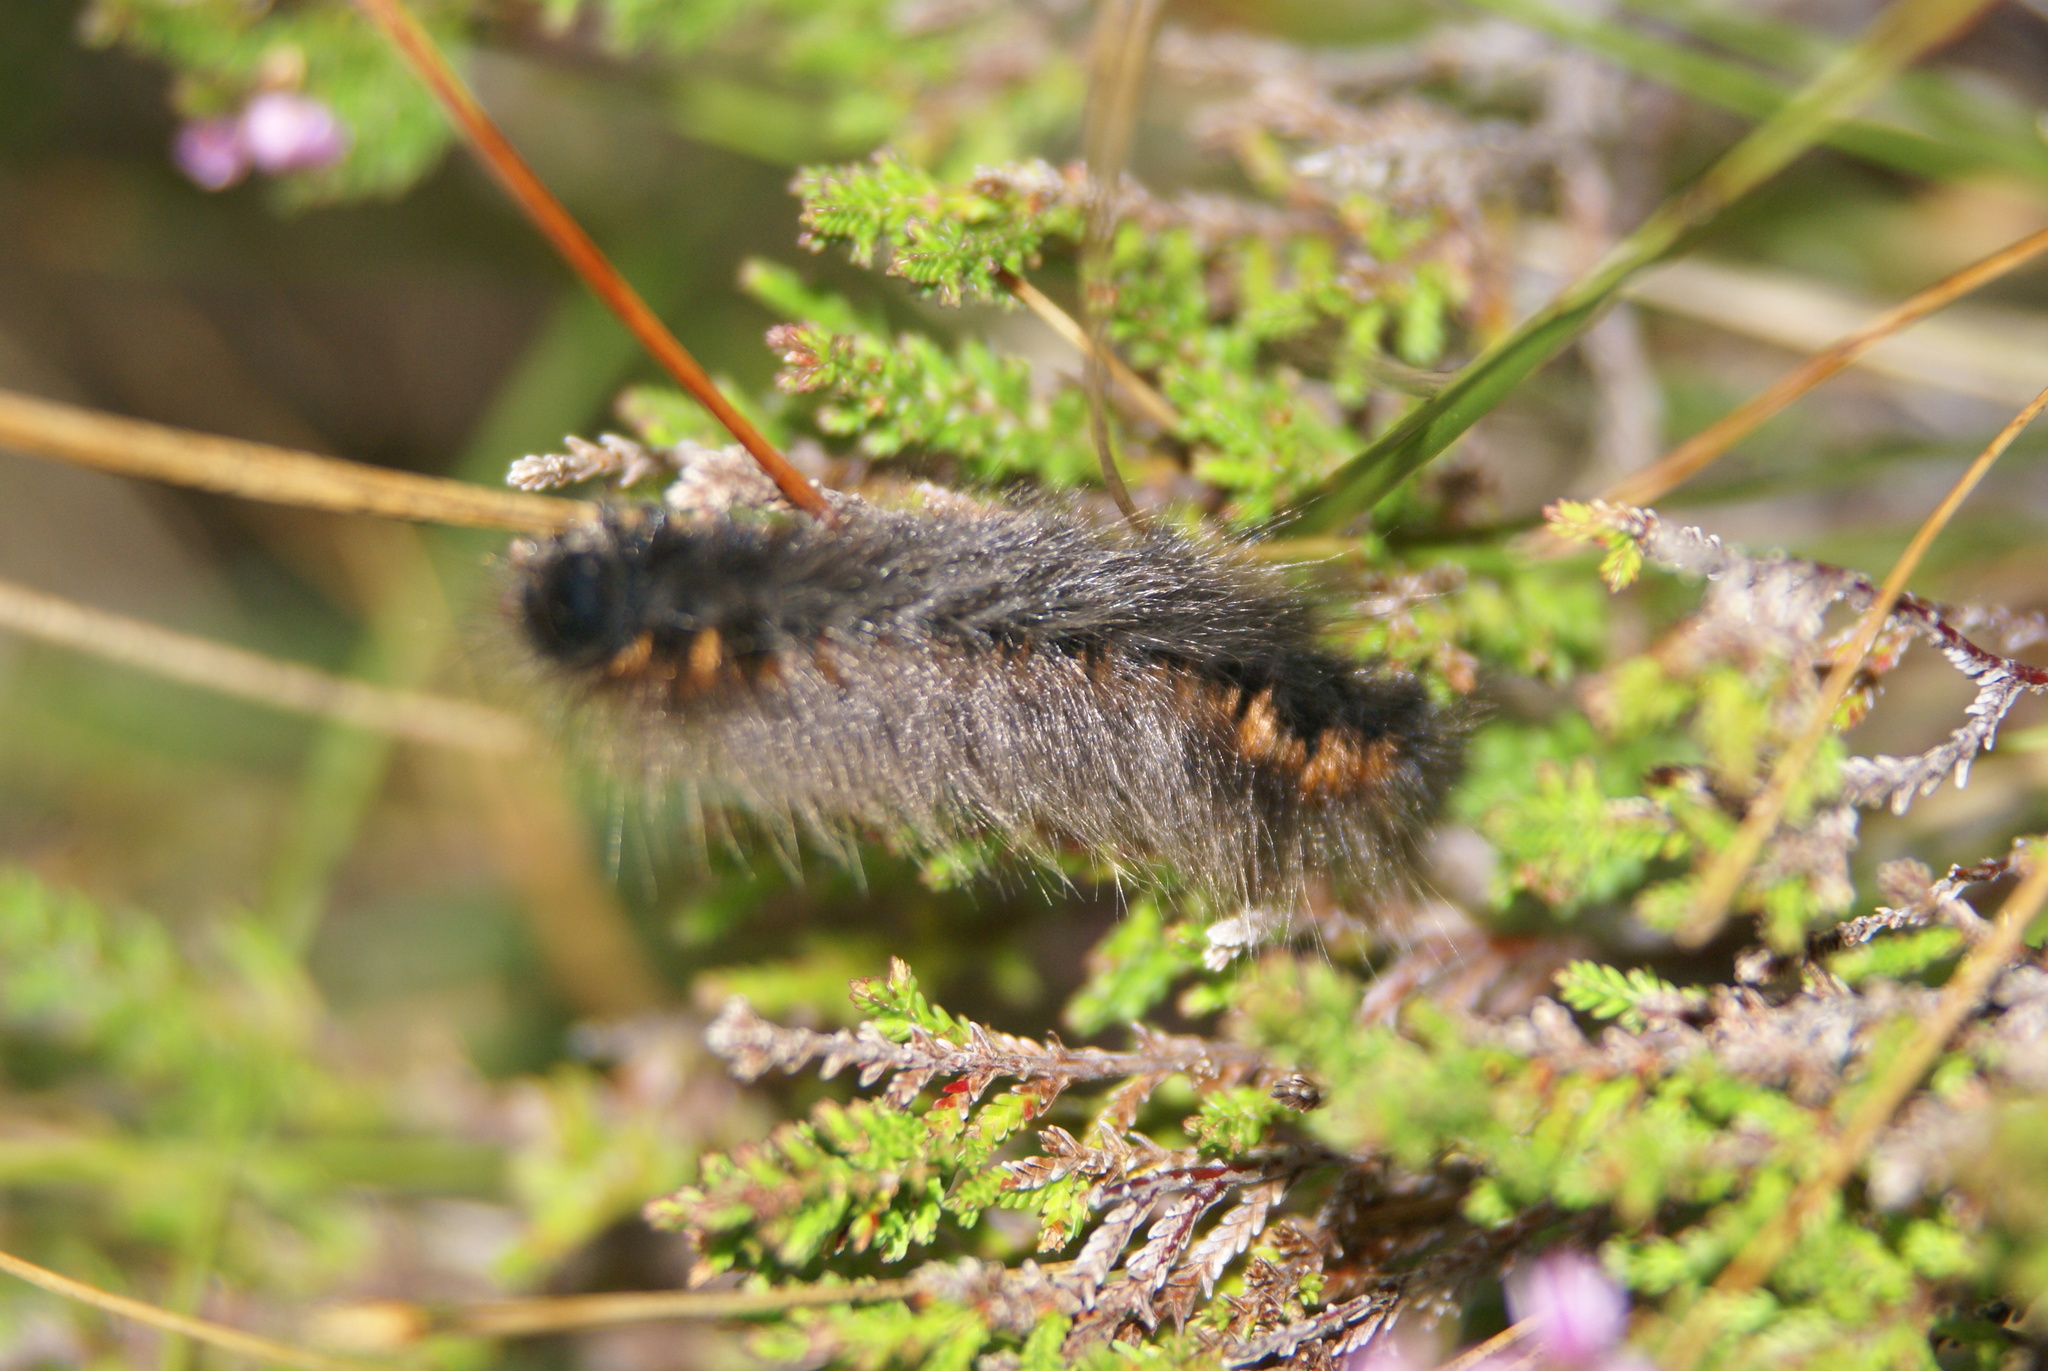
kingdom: Animalia
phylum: Arthropoda
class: Insecta
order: Lepidoptera
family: Lasiocampidae
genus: Macrothylacia
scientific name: Macrothylacia rubi
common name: Fox moth
